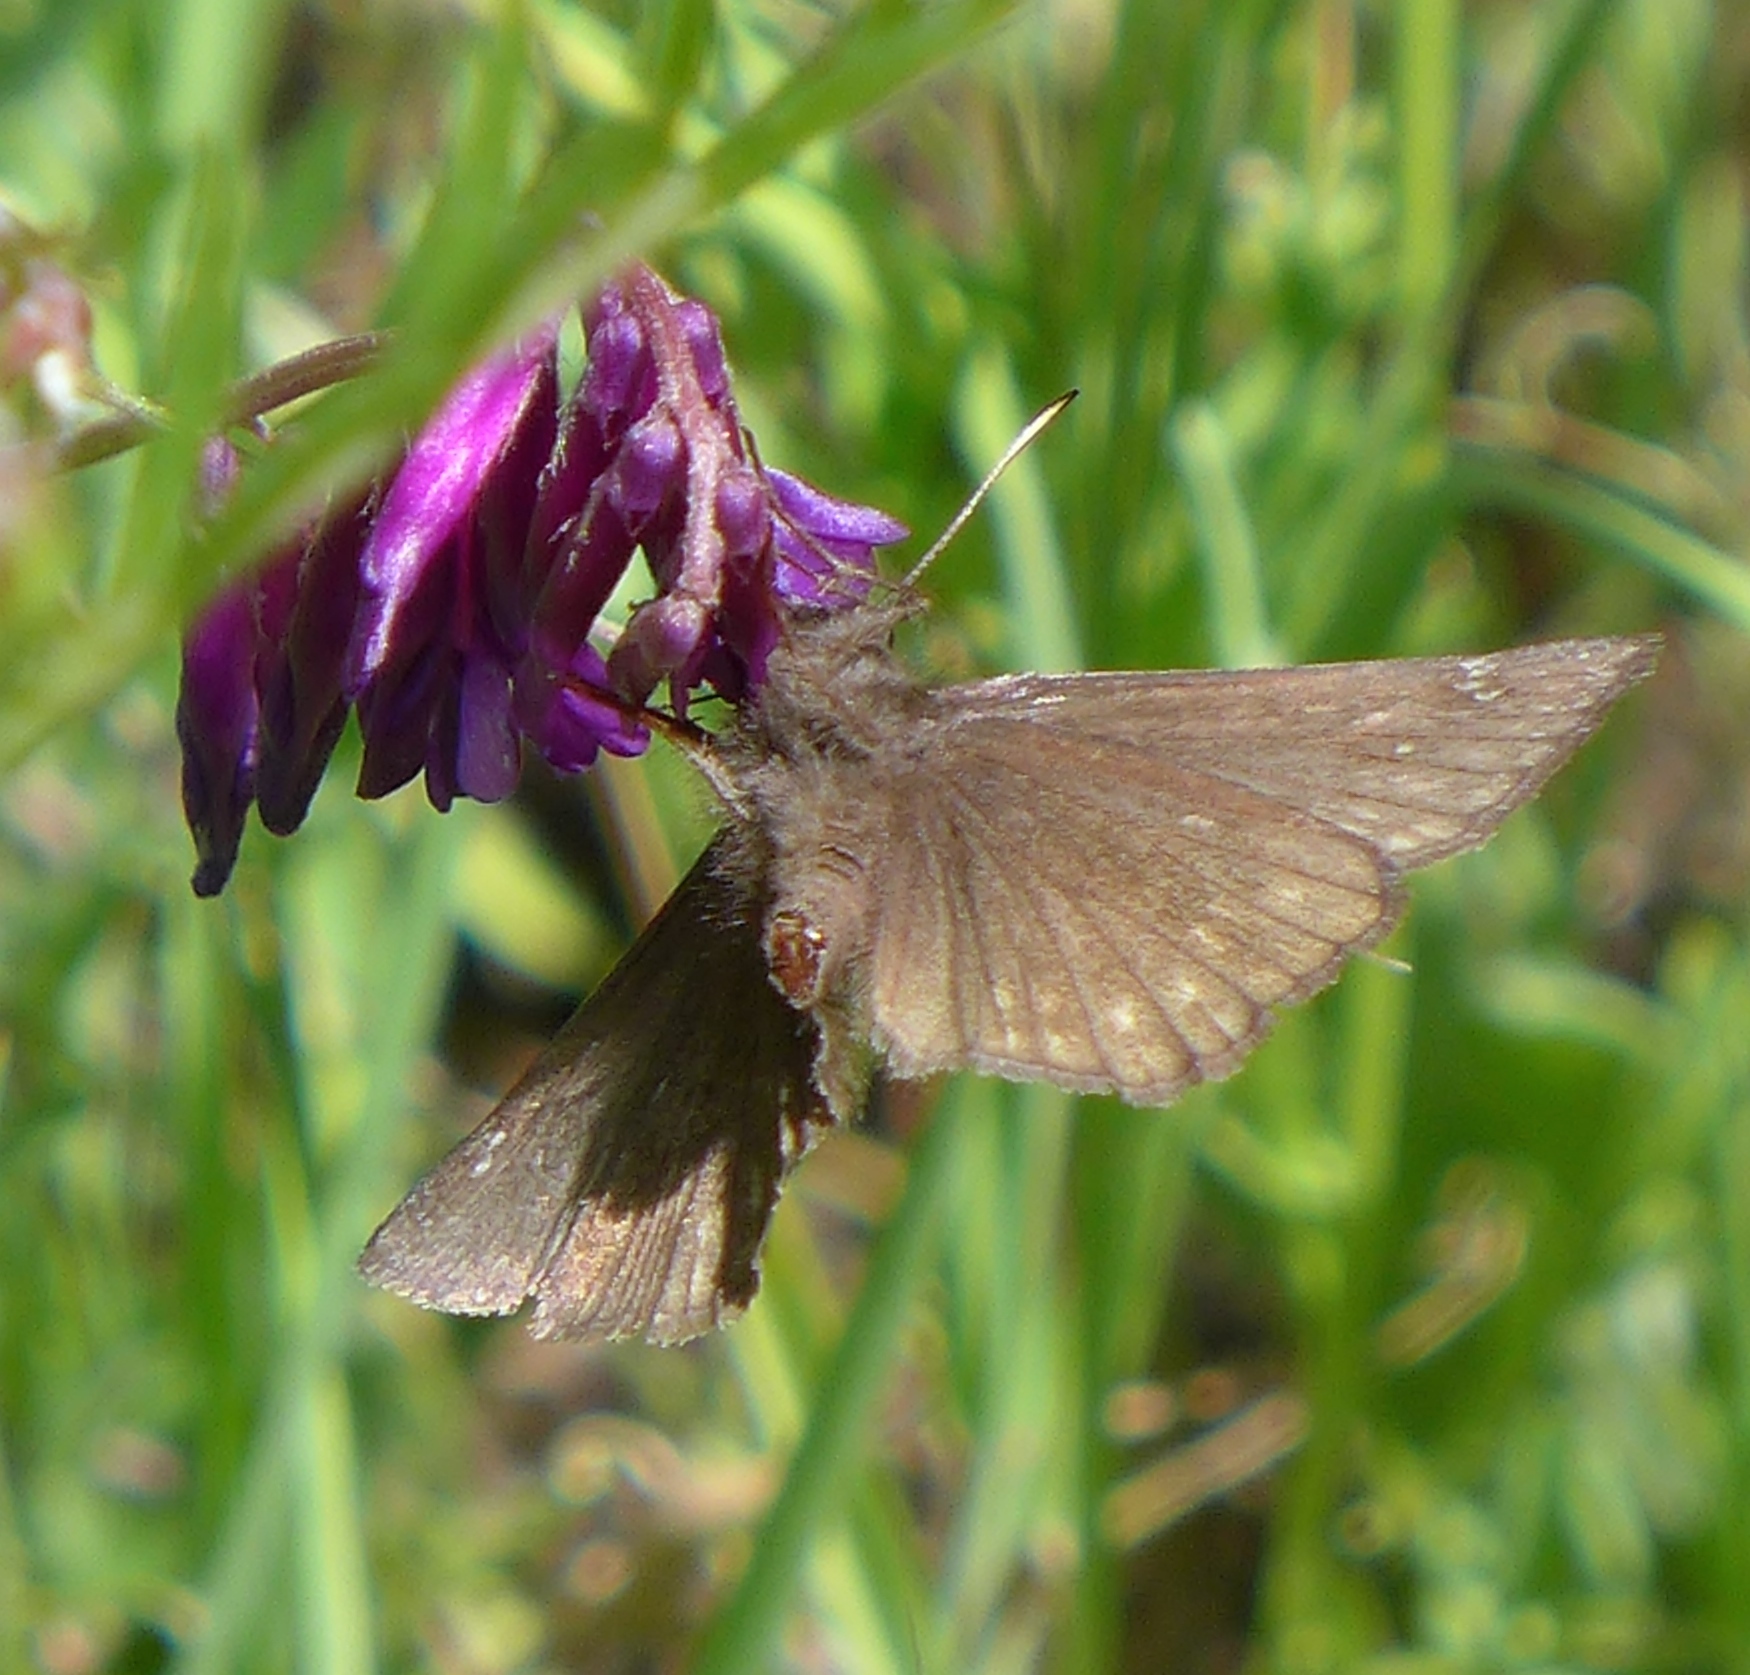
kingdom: Animalia
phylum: Arthropoda
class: Insecta
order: Lepidoptera
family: Hesperiidae
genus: Erynnis
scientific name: Erynnis propertius
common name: Propertius duskywing
